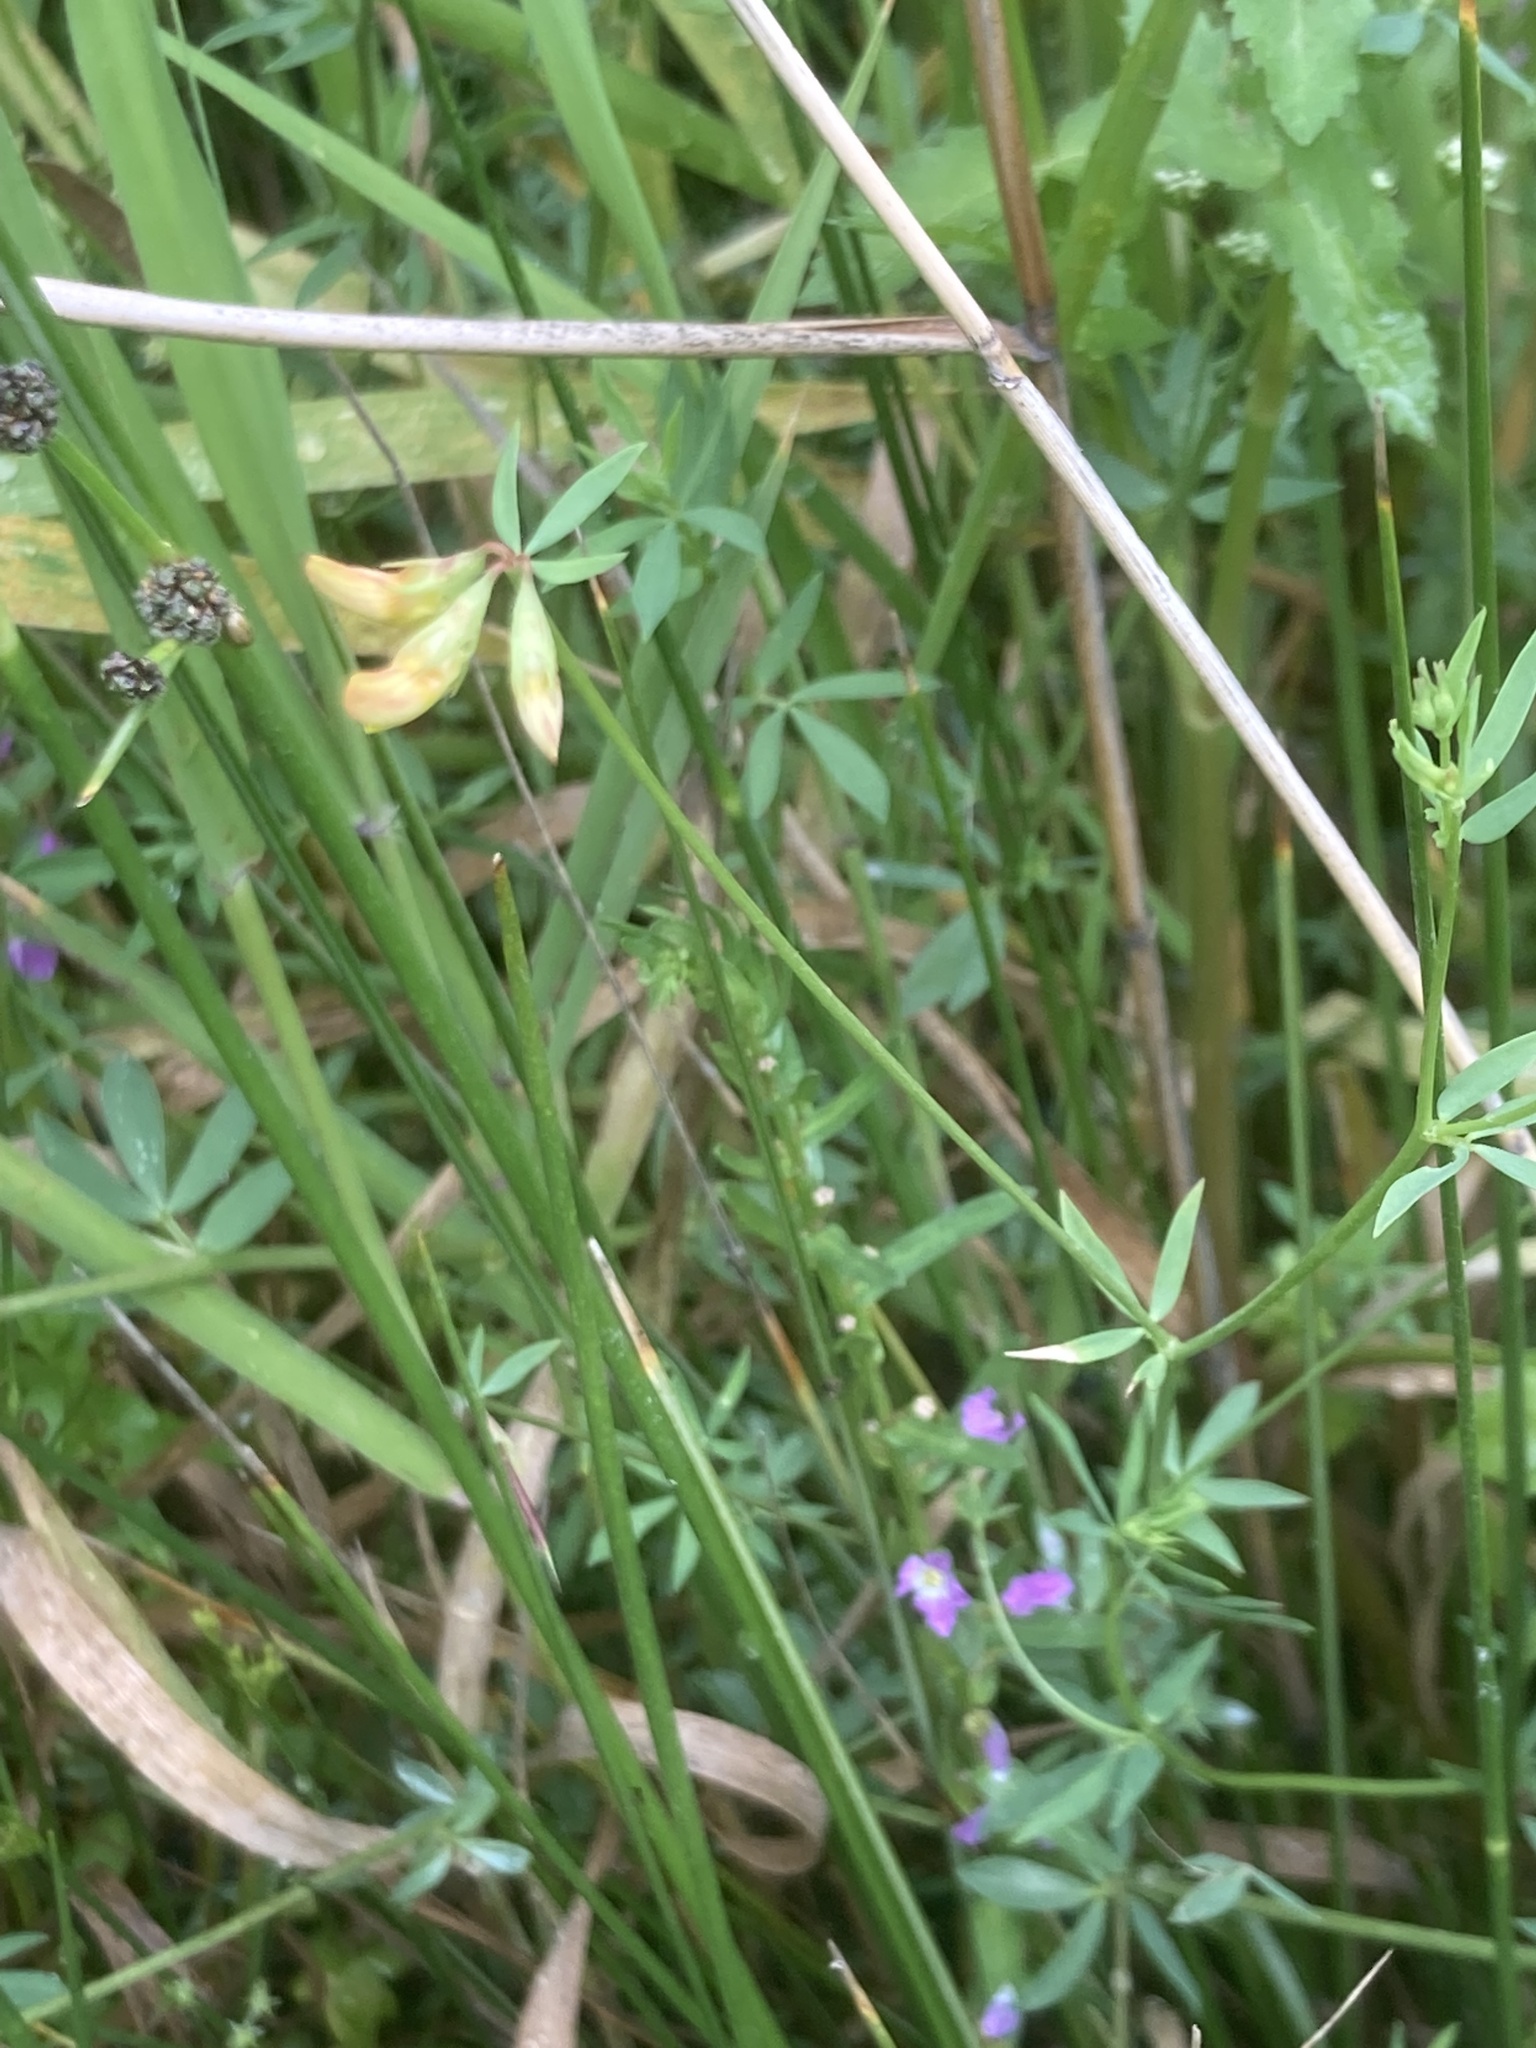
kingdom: Plantae
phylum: Tracheophyta
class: Magnoliopsida
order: Fabales
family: Fabaceae
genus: Lotus
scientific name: Lotus
